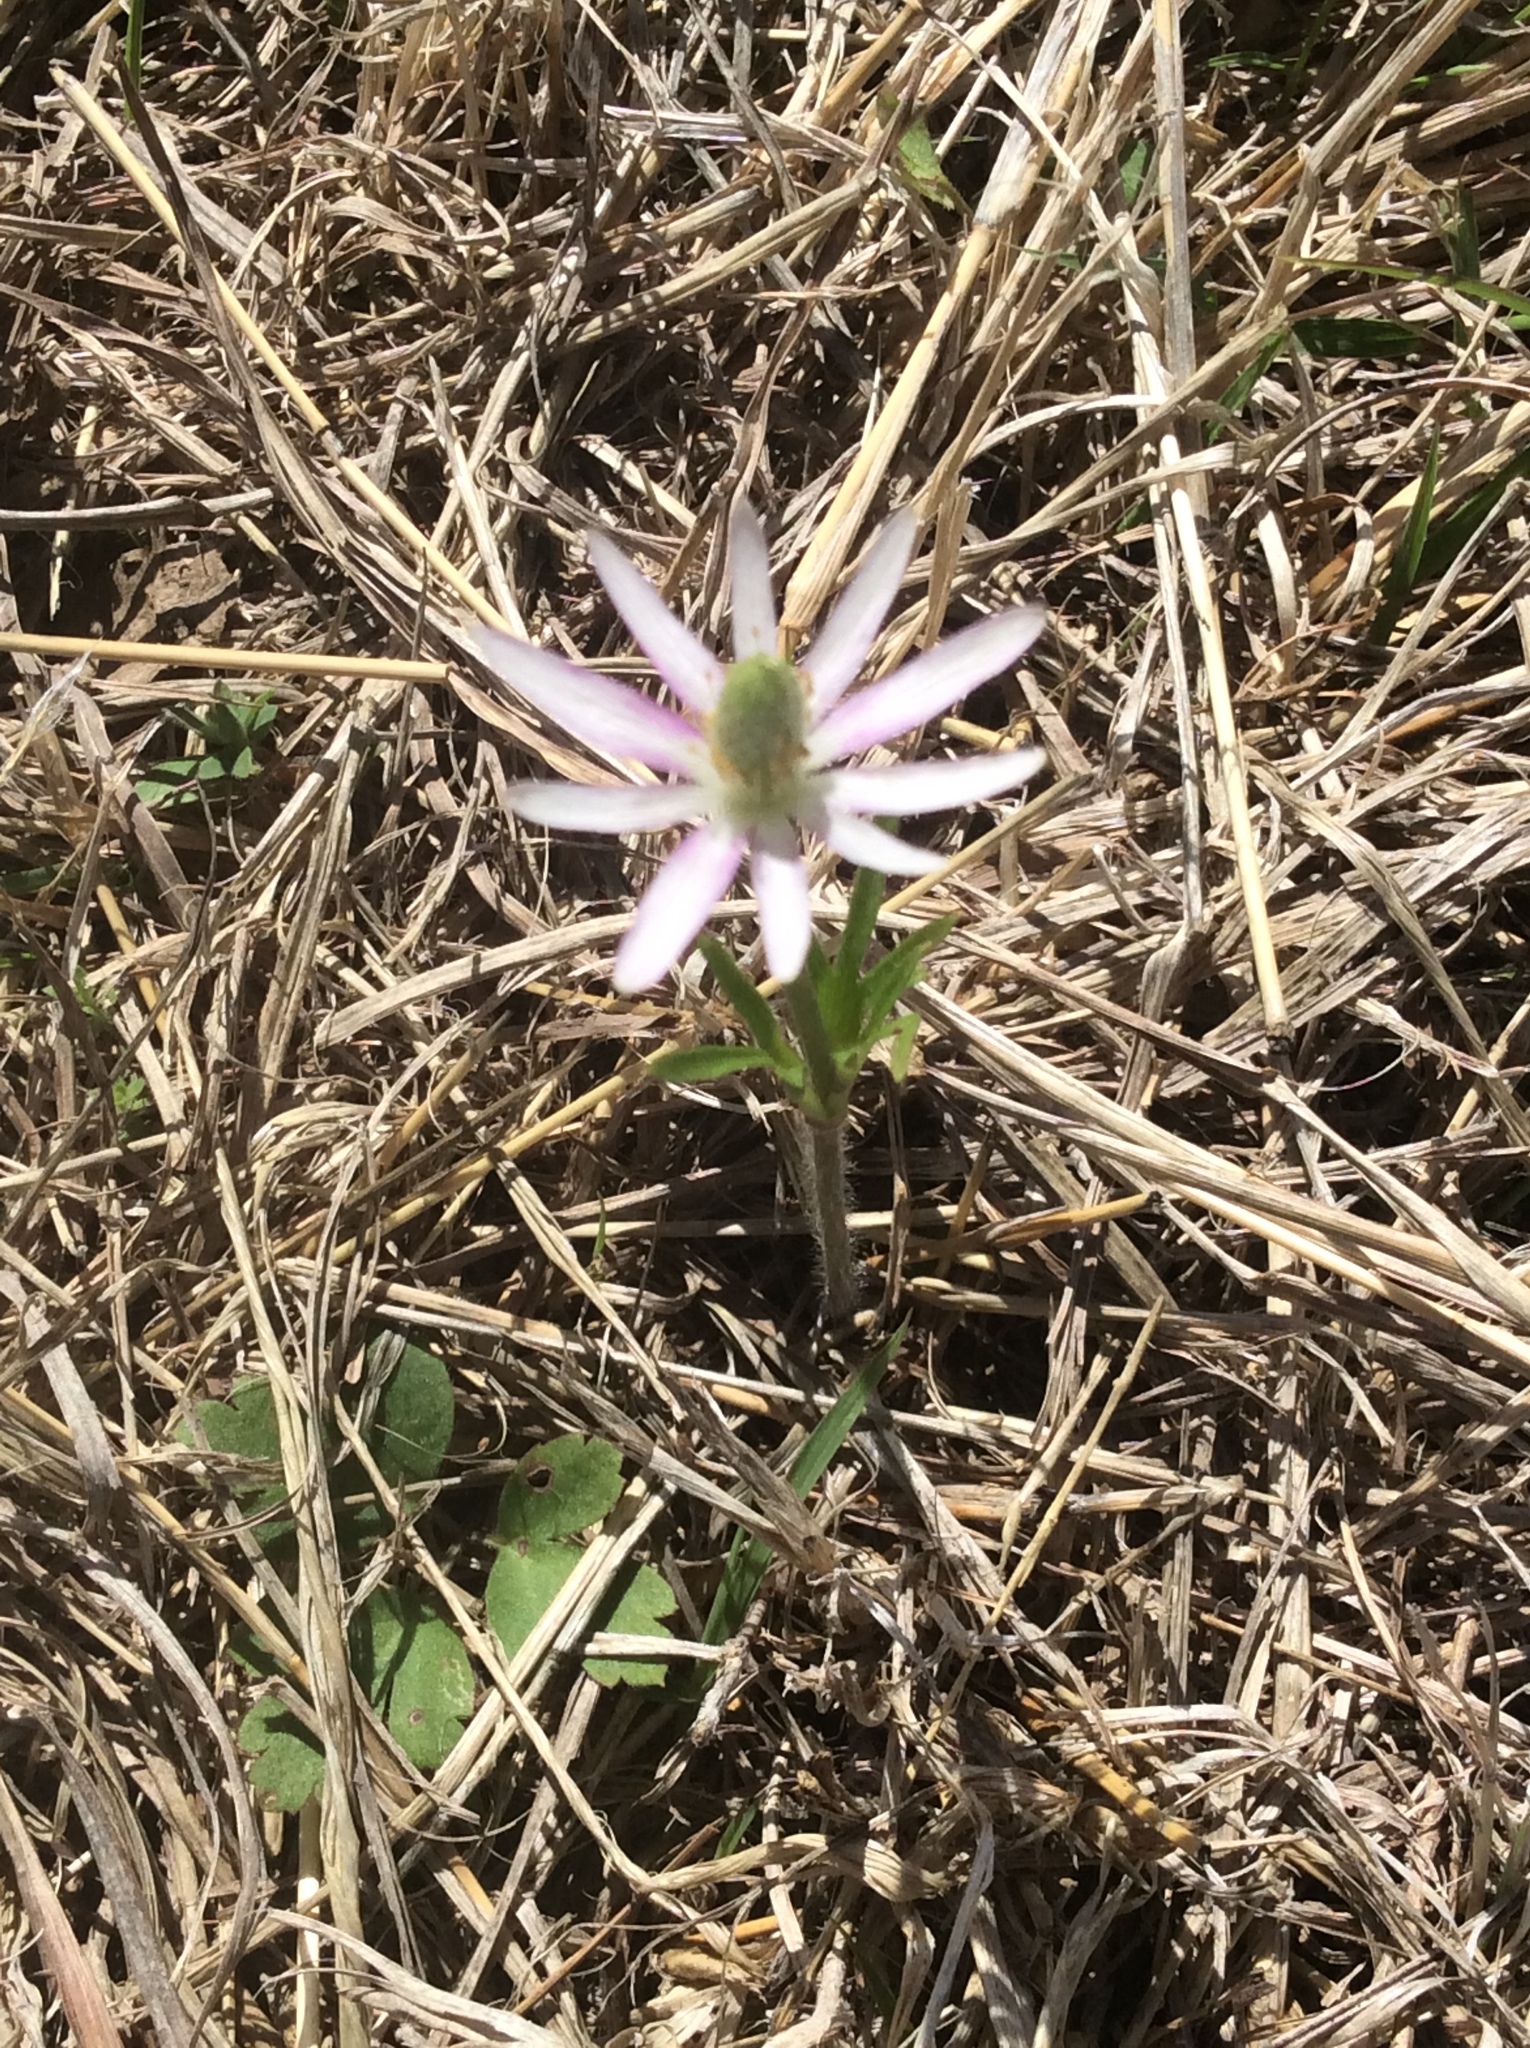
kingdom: Plantae
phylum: Tracheophyta
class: Magnoliopsida
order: Ranunculales
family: Ranunculaceae
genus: Anemone
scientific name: Anemone berlandieri
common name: Ten-petal anemone
